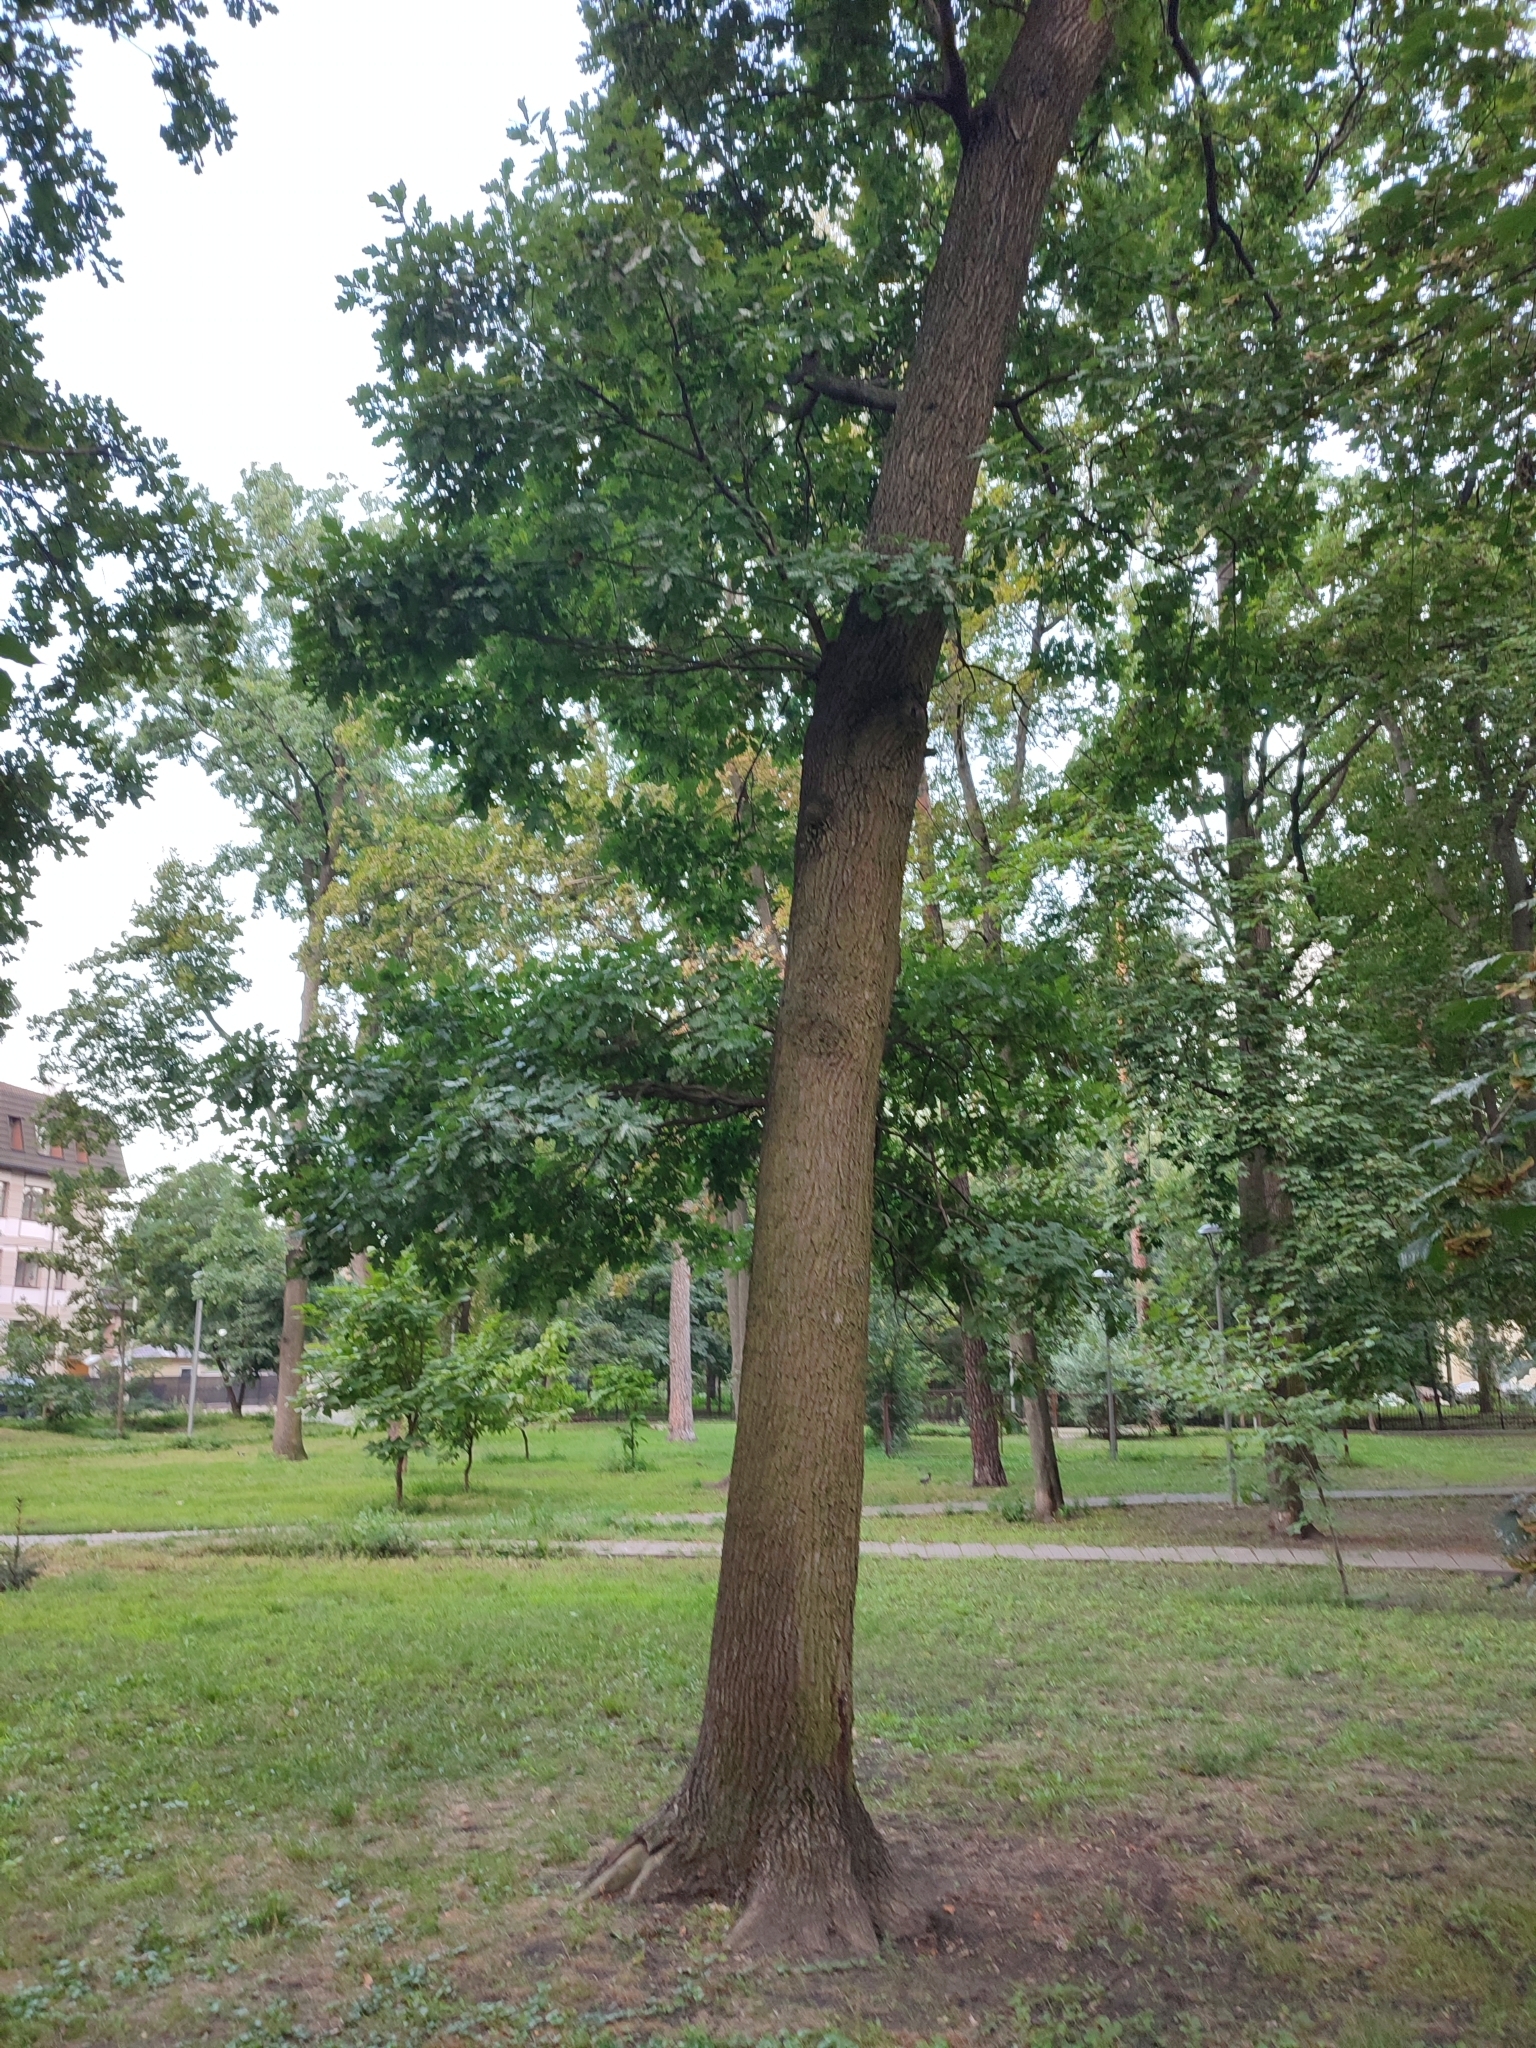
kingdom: Plantae
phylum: Tracheophyta
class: Magnoliopsida
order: Fagales
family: Fagaceae
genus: Quercus
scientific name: Quercus robur
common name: Pedunculate oak
